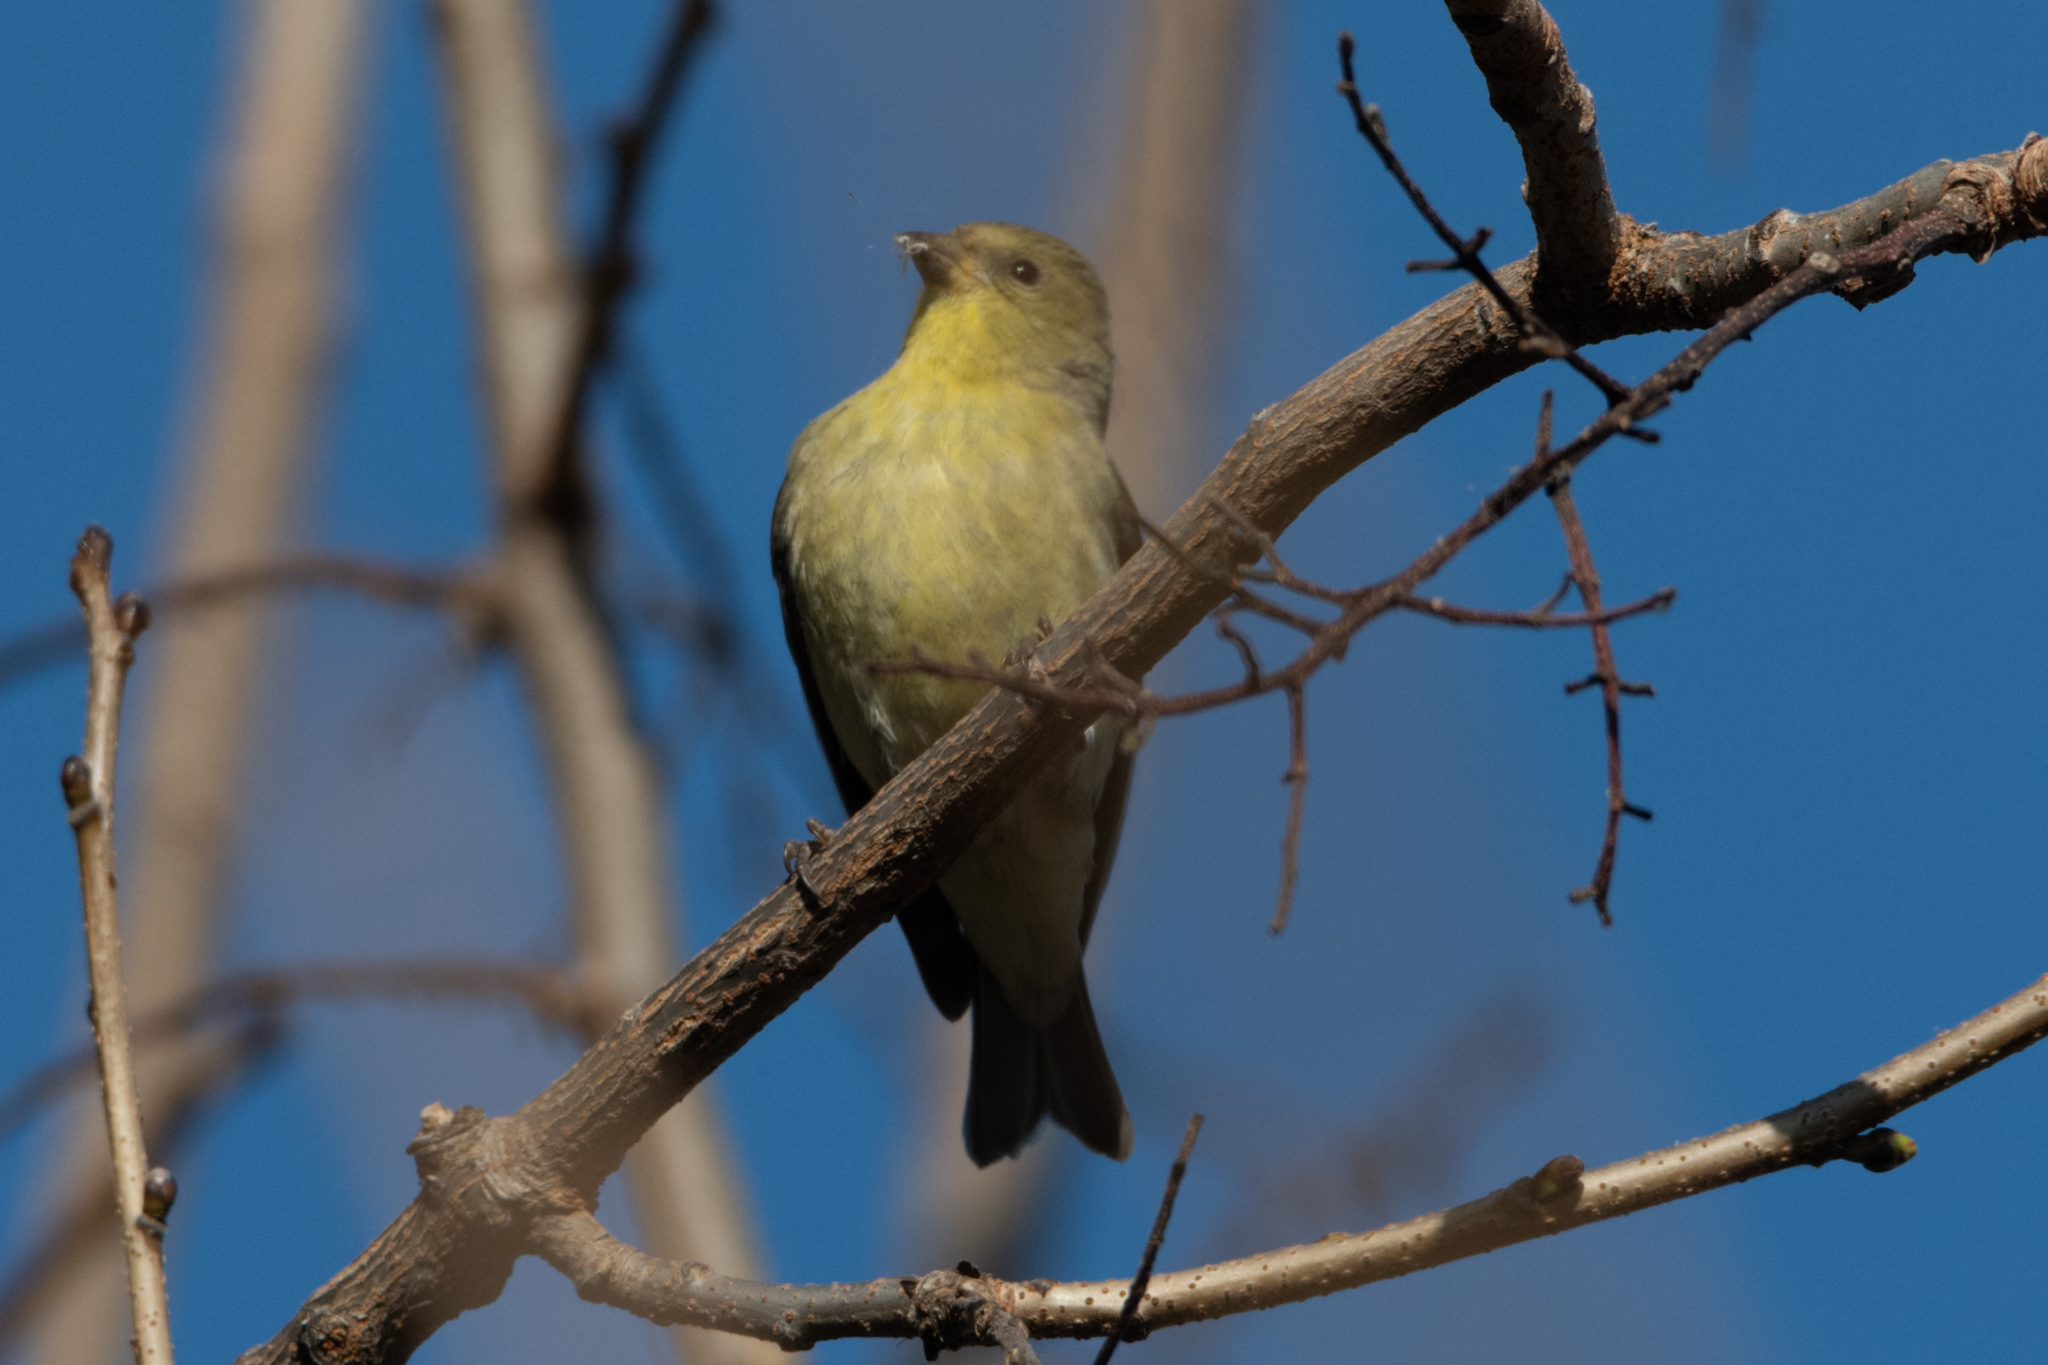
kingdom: Animalia
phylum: Chordata
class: Aves
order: Passeriformes
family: Fringillidae
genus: Spinus
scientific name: Spinus psaltria
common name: Lesser goldfinch
